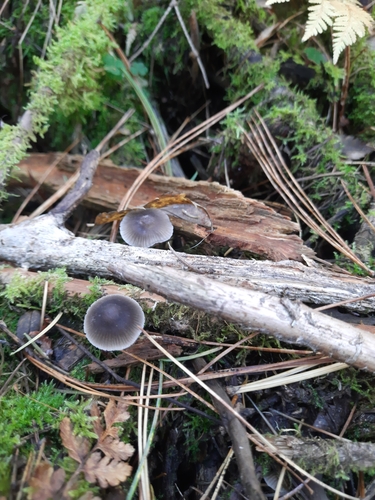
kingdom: Fungi
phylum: Basidiomycota
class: Agaricomycetes
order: Agaricales
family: Mycenaceae
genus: Mycena
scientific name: Mycena
